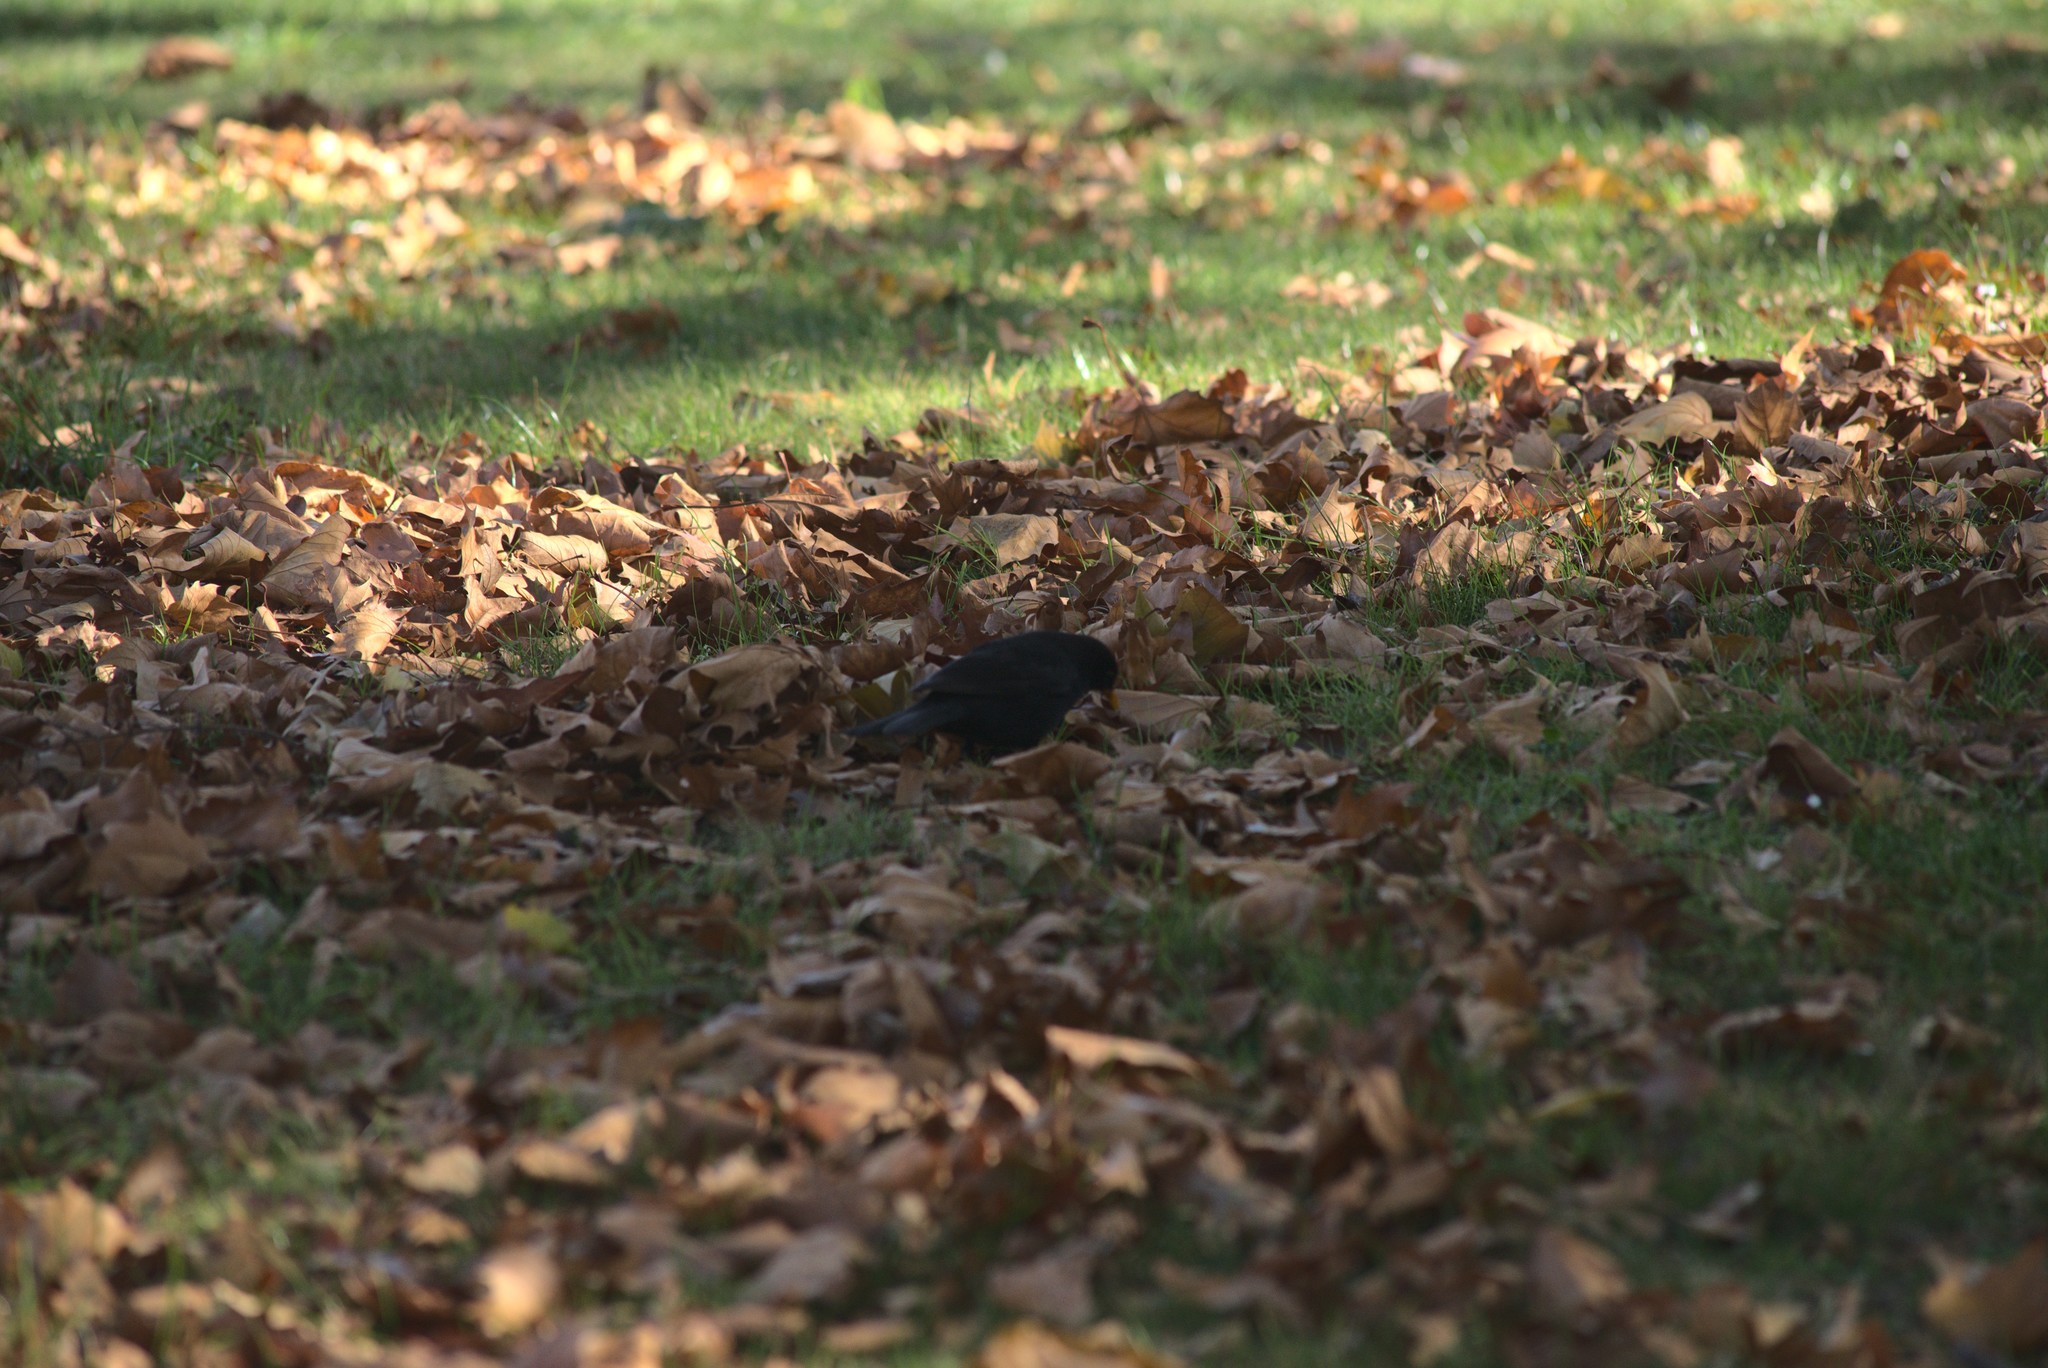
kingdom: Animalia
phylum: Chordata
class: Aves
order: Passeriformes
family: Turdidae
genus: Turdus
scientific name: Turdus merula
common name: Common blackbird
